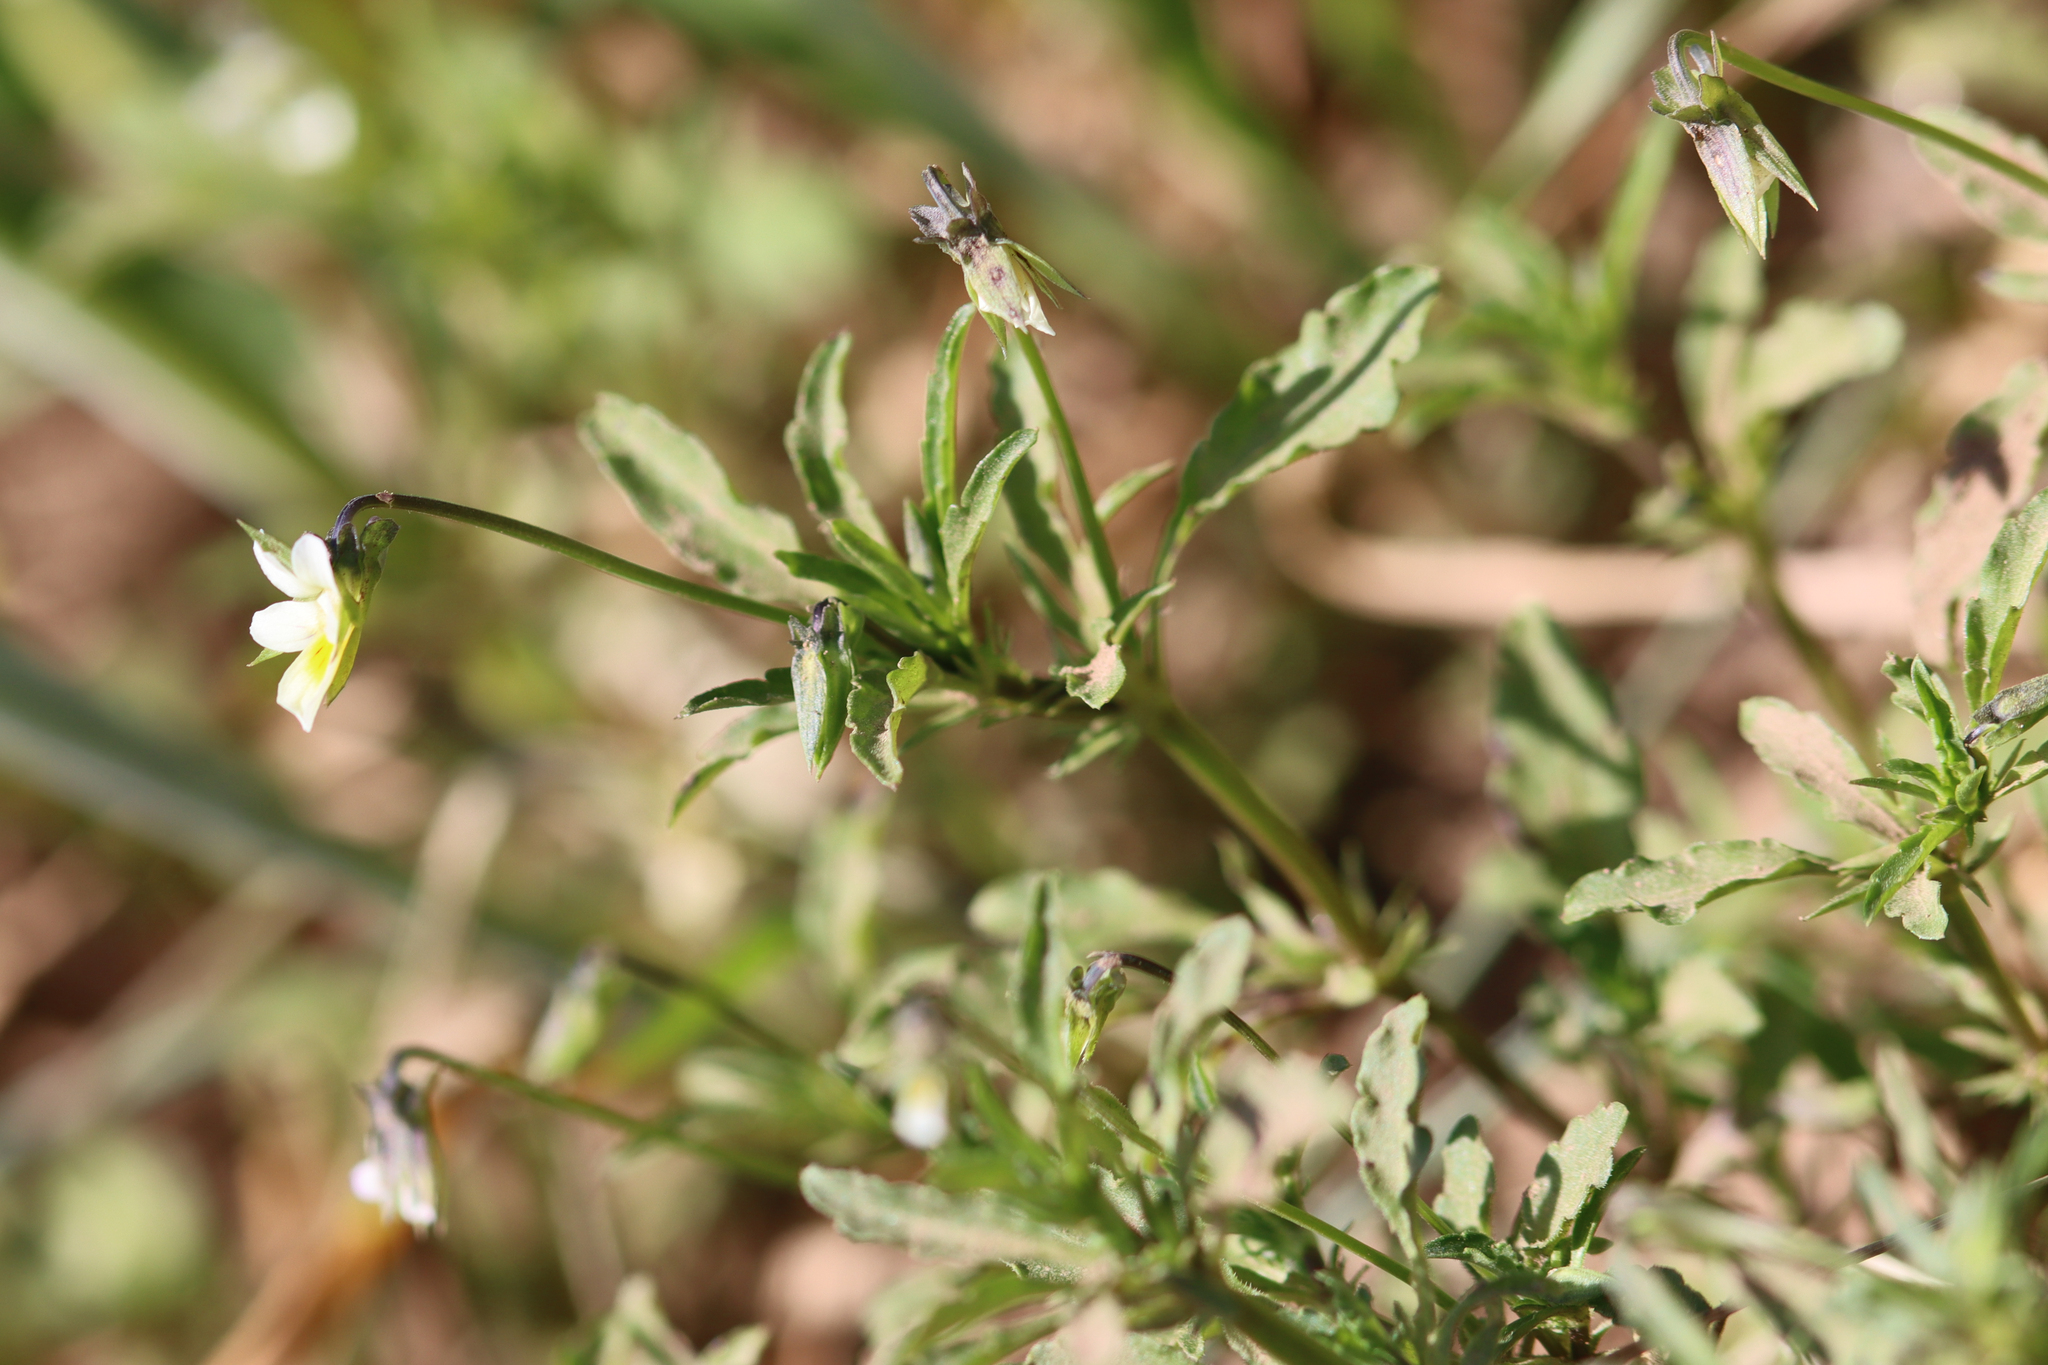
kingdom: Plantae
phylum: Tracheophyta
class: Magnoliopsida
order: Malpighiales
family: Violaceae
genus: Viola
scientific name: Viola arvensis
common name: Field pansy
